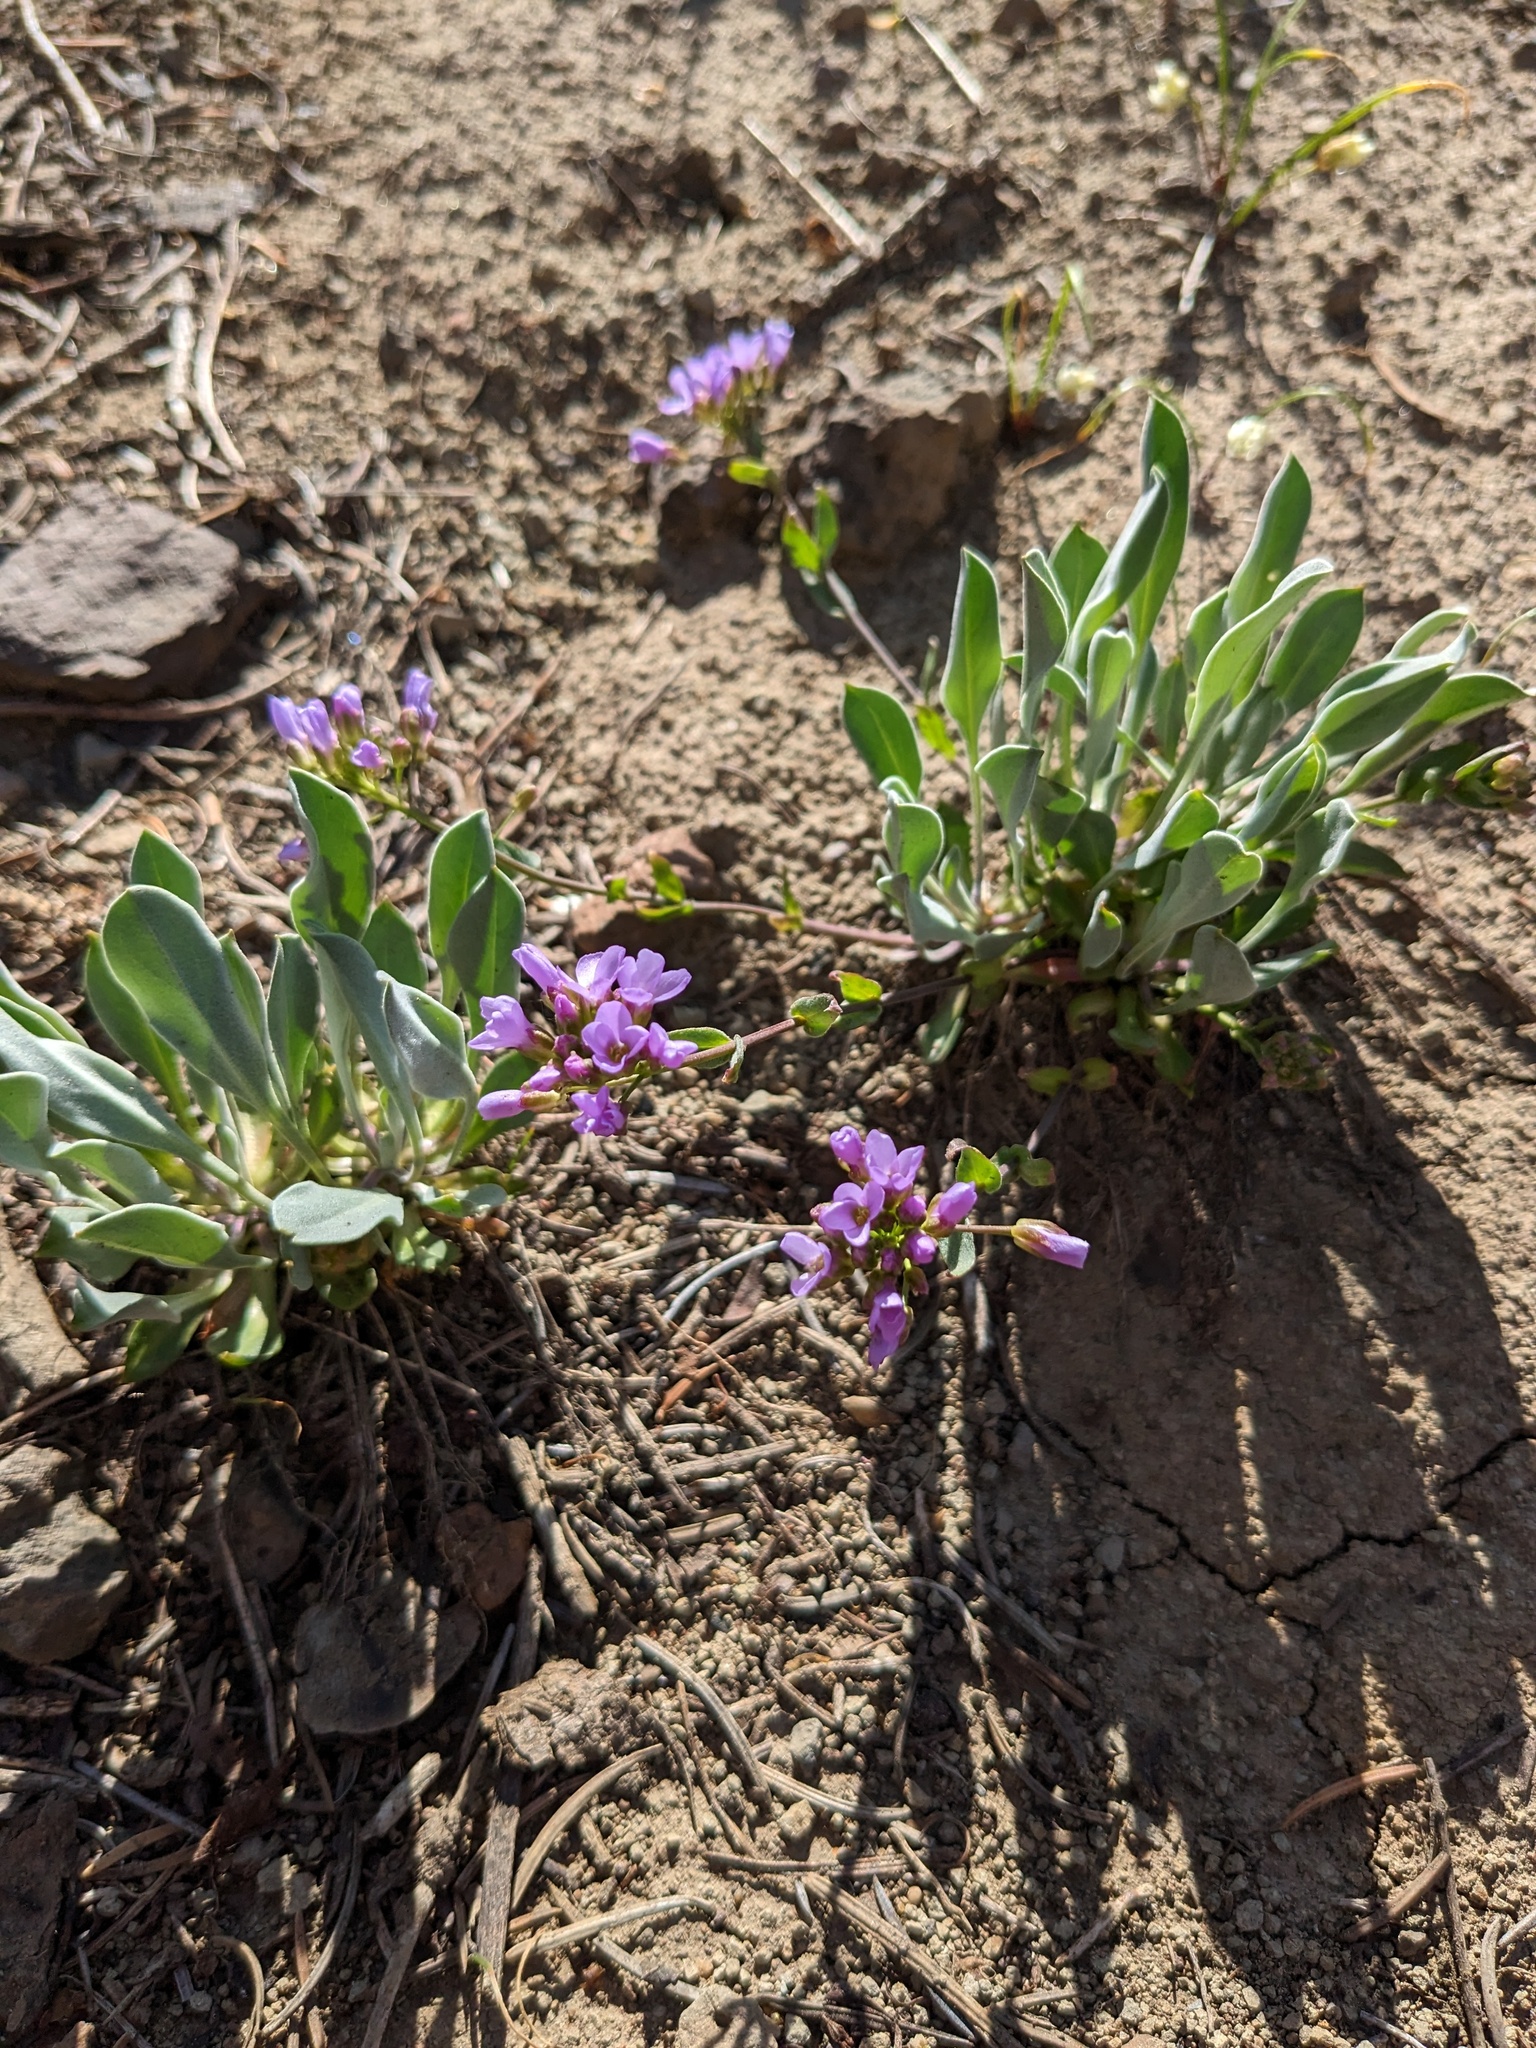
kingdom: Plantae
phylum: Tracheophyta
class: Magnoliopsida
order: Brassicales
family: Brassicaceae
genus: Phoenicaulis
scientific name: Phoenicaulis cheiranthoides
